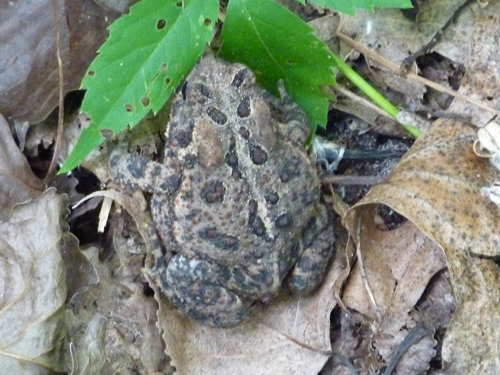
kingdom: Animalia
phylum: Chordata
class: Amphibia
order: Anura
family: Bufonidae
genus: Anaxyrus
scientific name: Anaxyrus americanus
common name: American toad
